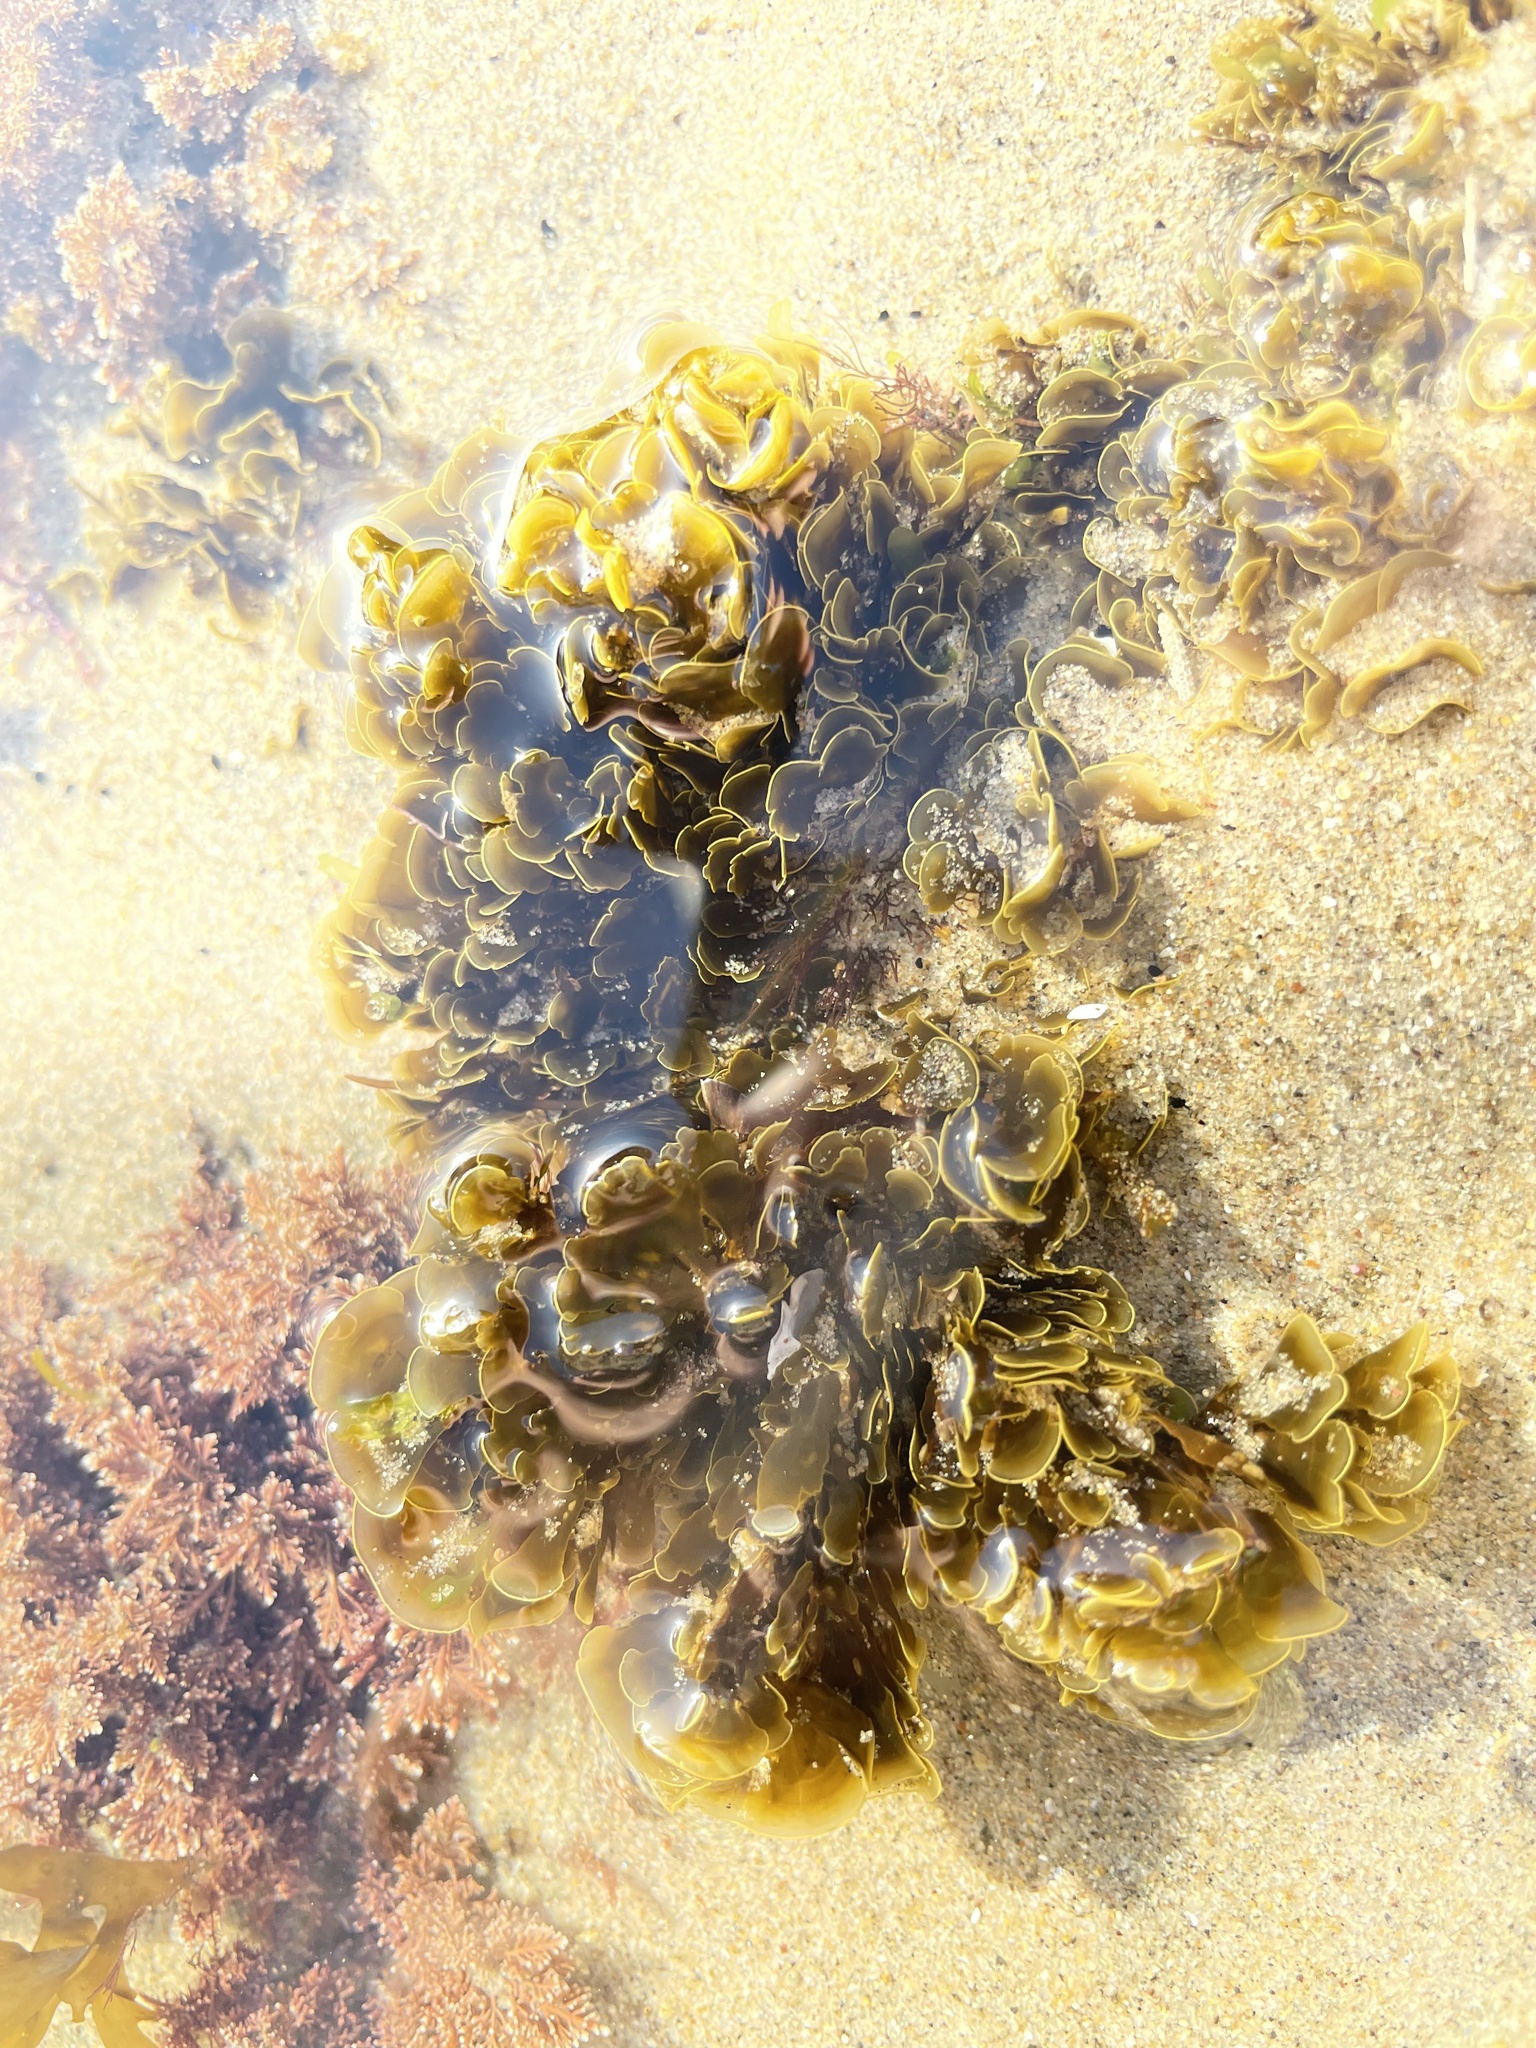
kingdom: Chromista
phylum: Ochrophyta
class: Phaeophyceae
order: Dictyotales
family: Dictyotaceae
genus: Zonaria
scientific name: Zonaria farlowii
